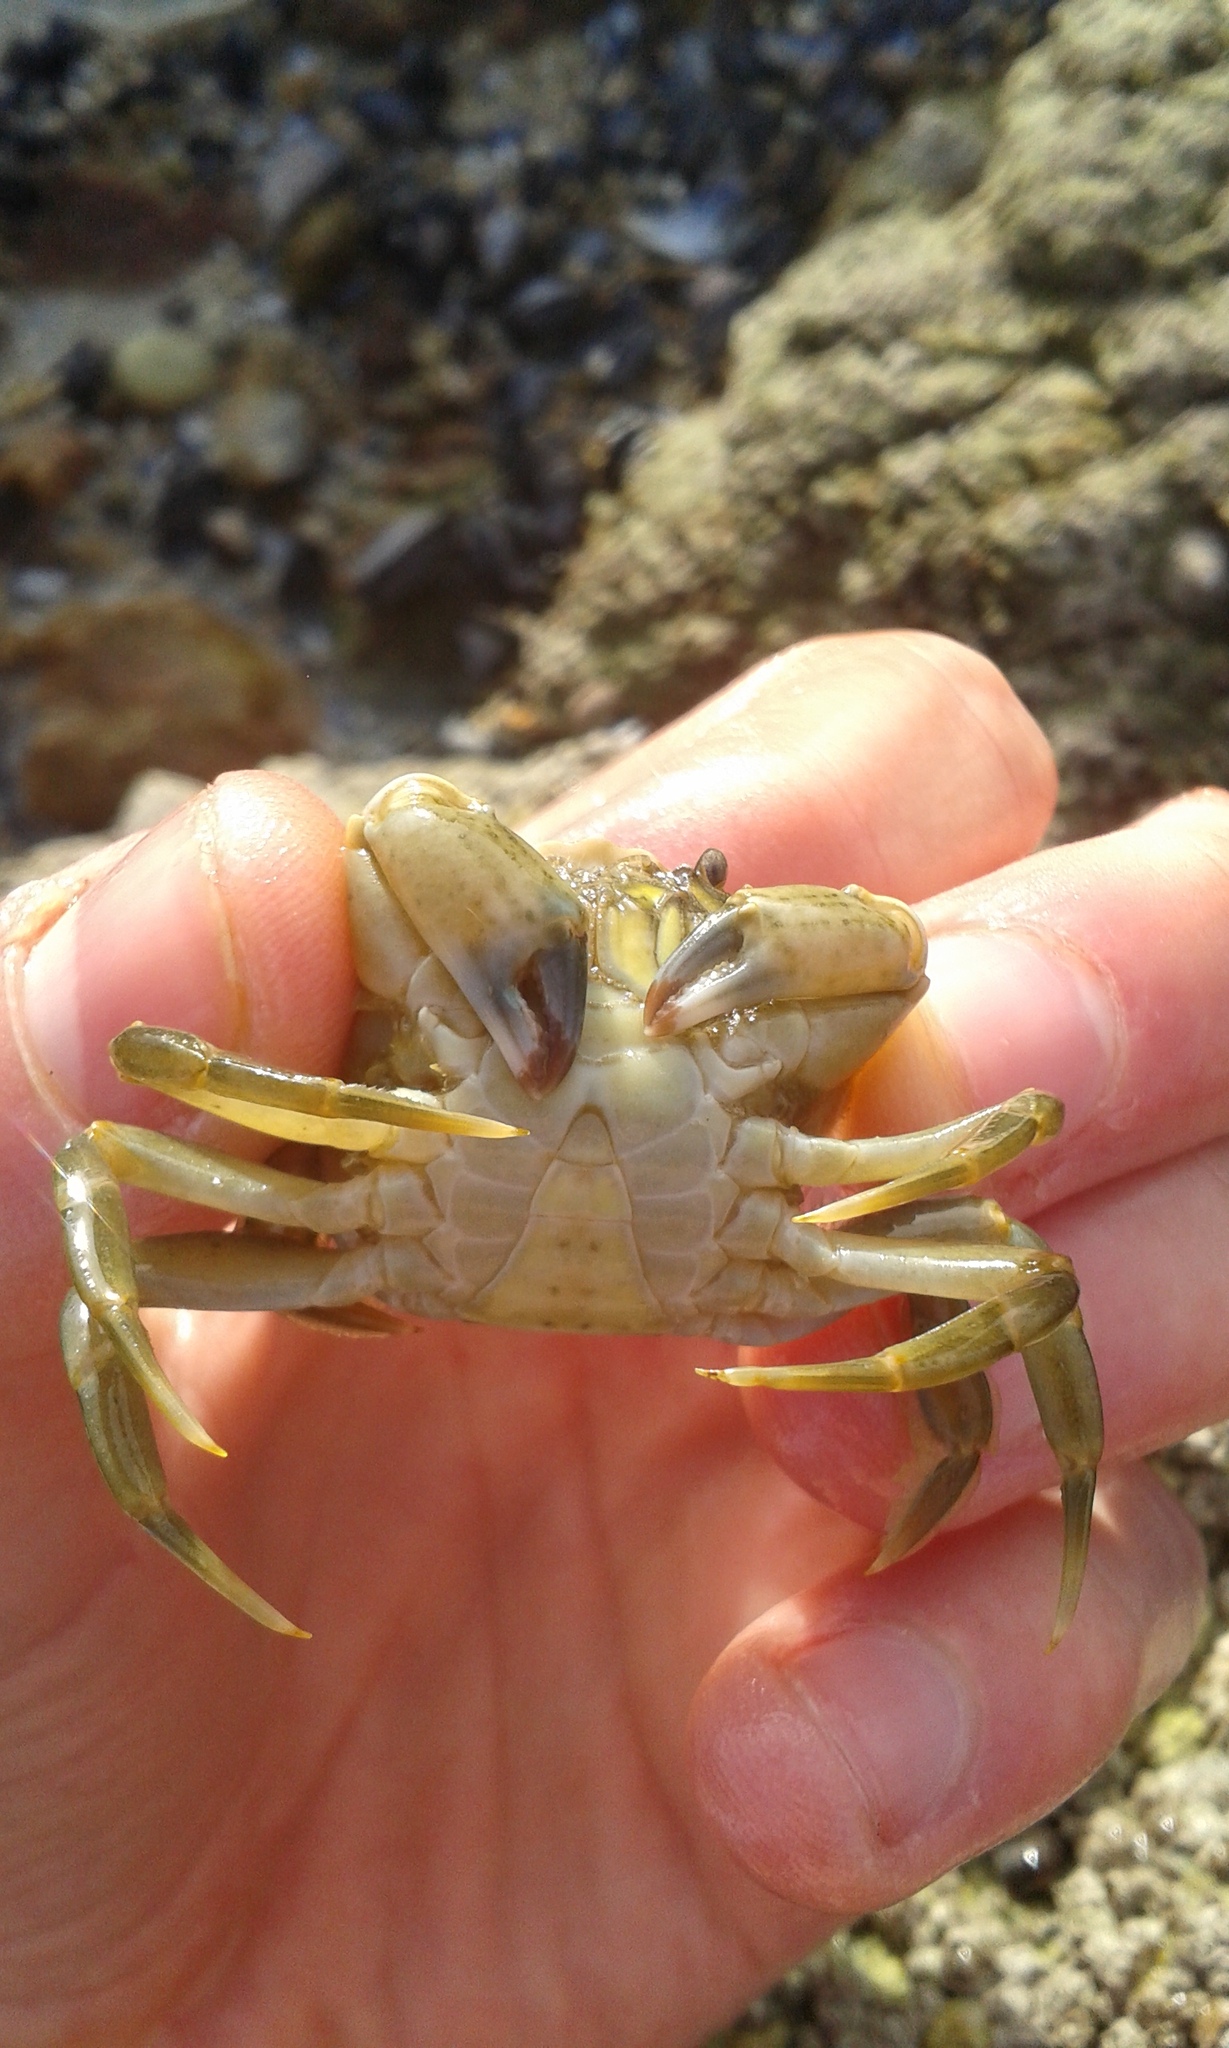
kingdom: Animalia
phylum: Arthropoda
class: Malacostraca
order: Decapoda
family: Carcinidae
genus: Carcinus
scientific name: Carcinus maenas
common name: European green crab
